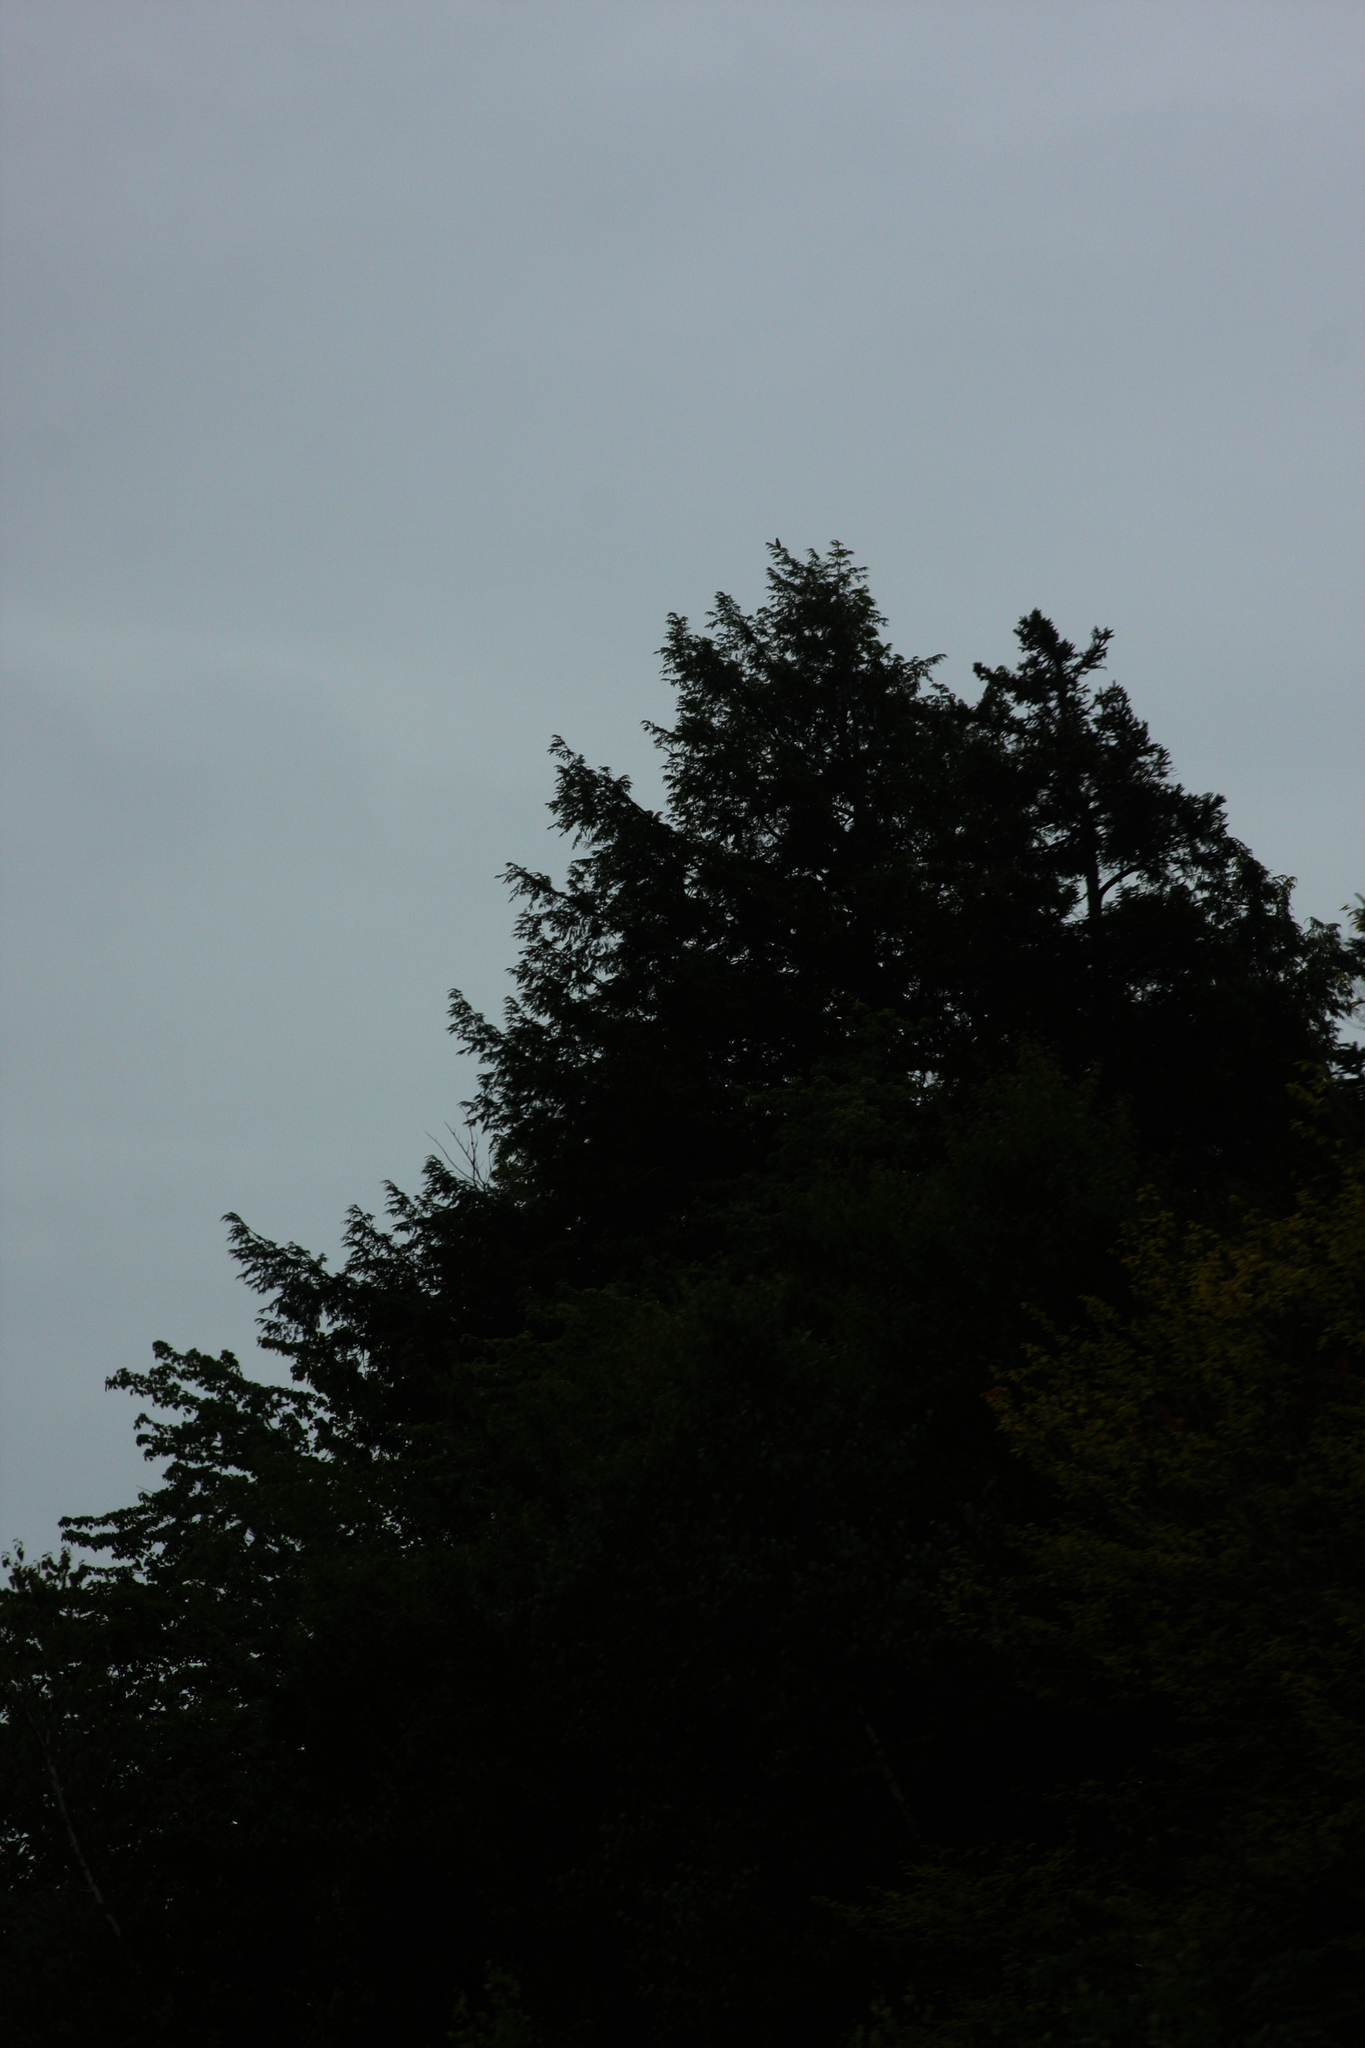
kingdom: Plantae
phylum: Tracheophyta
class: Pinopsida
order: Pinales
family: Pinaceae
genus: Pinus
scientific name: Pinus strobus
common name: Weymouth pine
